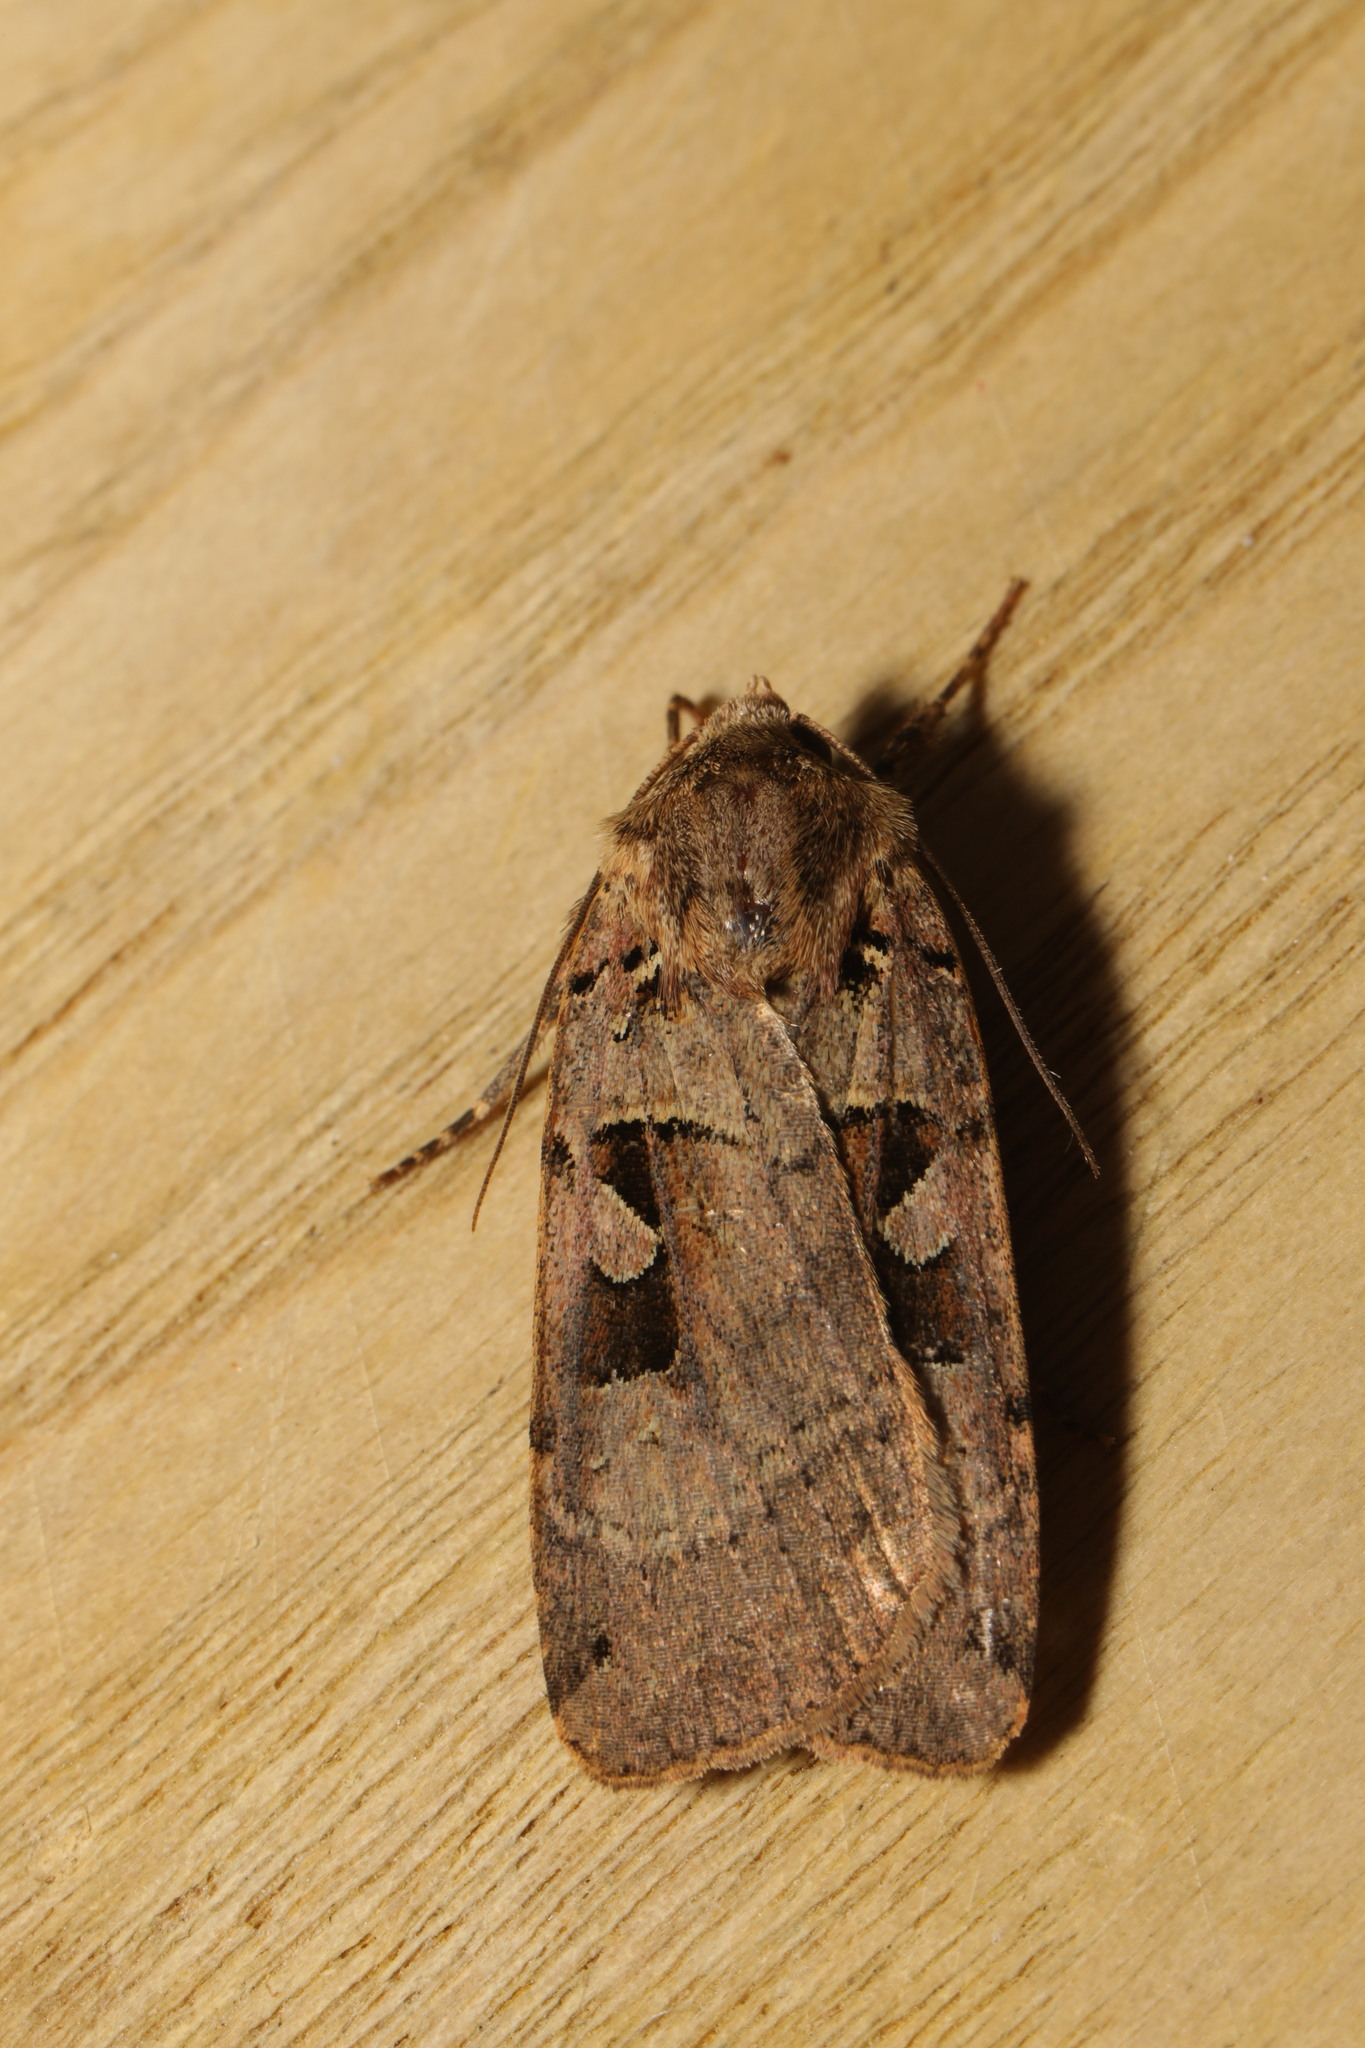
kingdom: Animalia
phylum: Arthropoda
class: Insecta
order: Lepidoptera
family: Noctuidae
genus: Xestia
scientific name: Xestia triangulum
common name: Double square-spot
